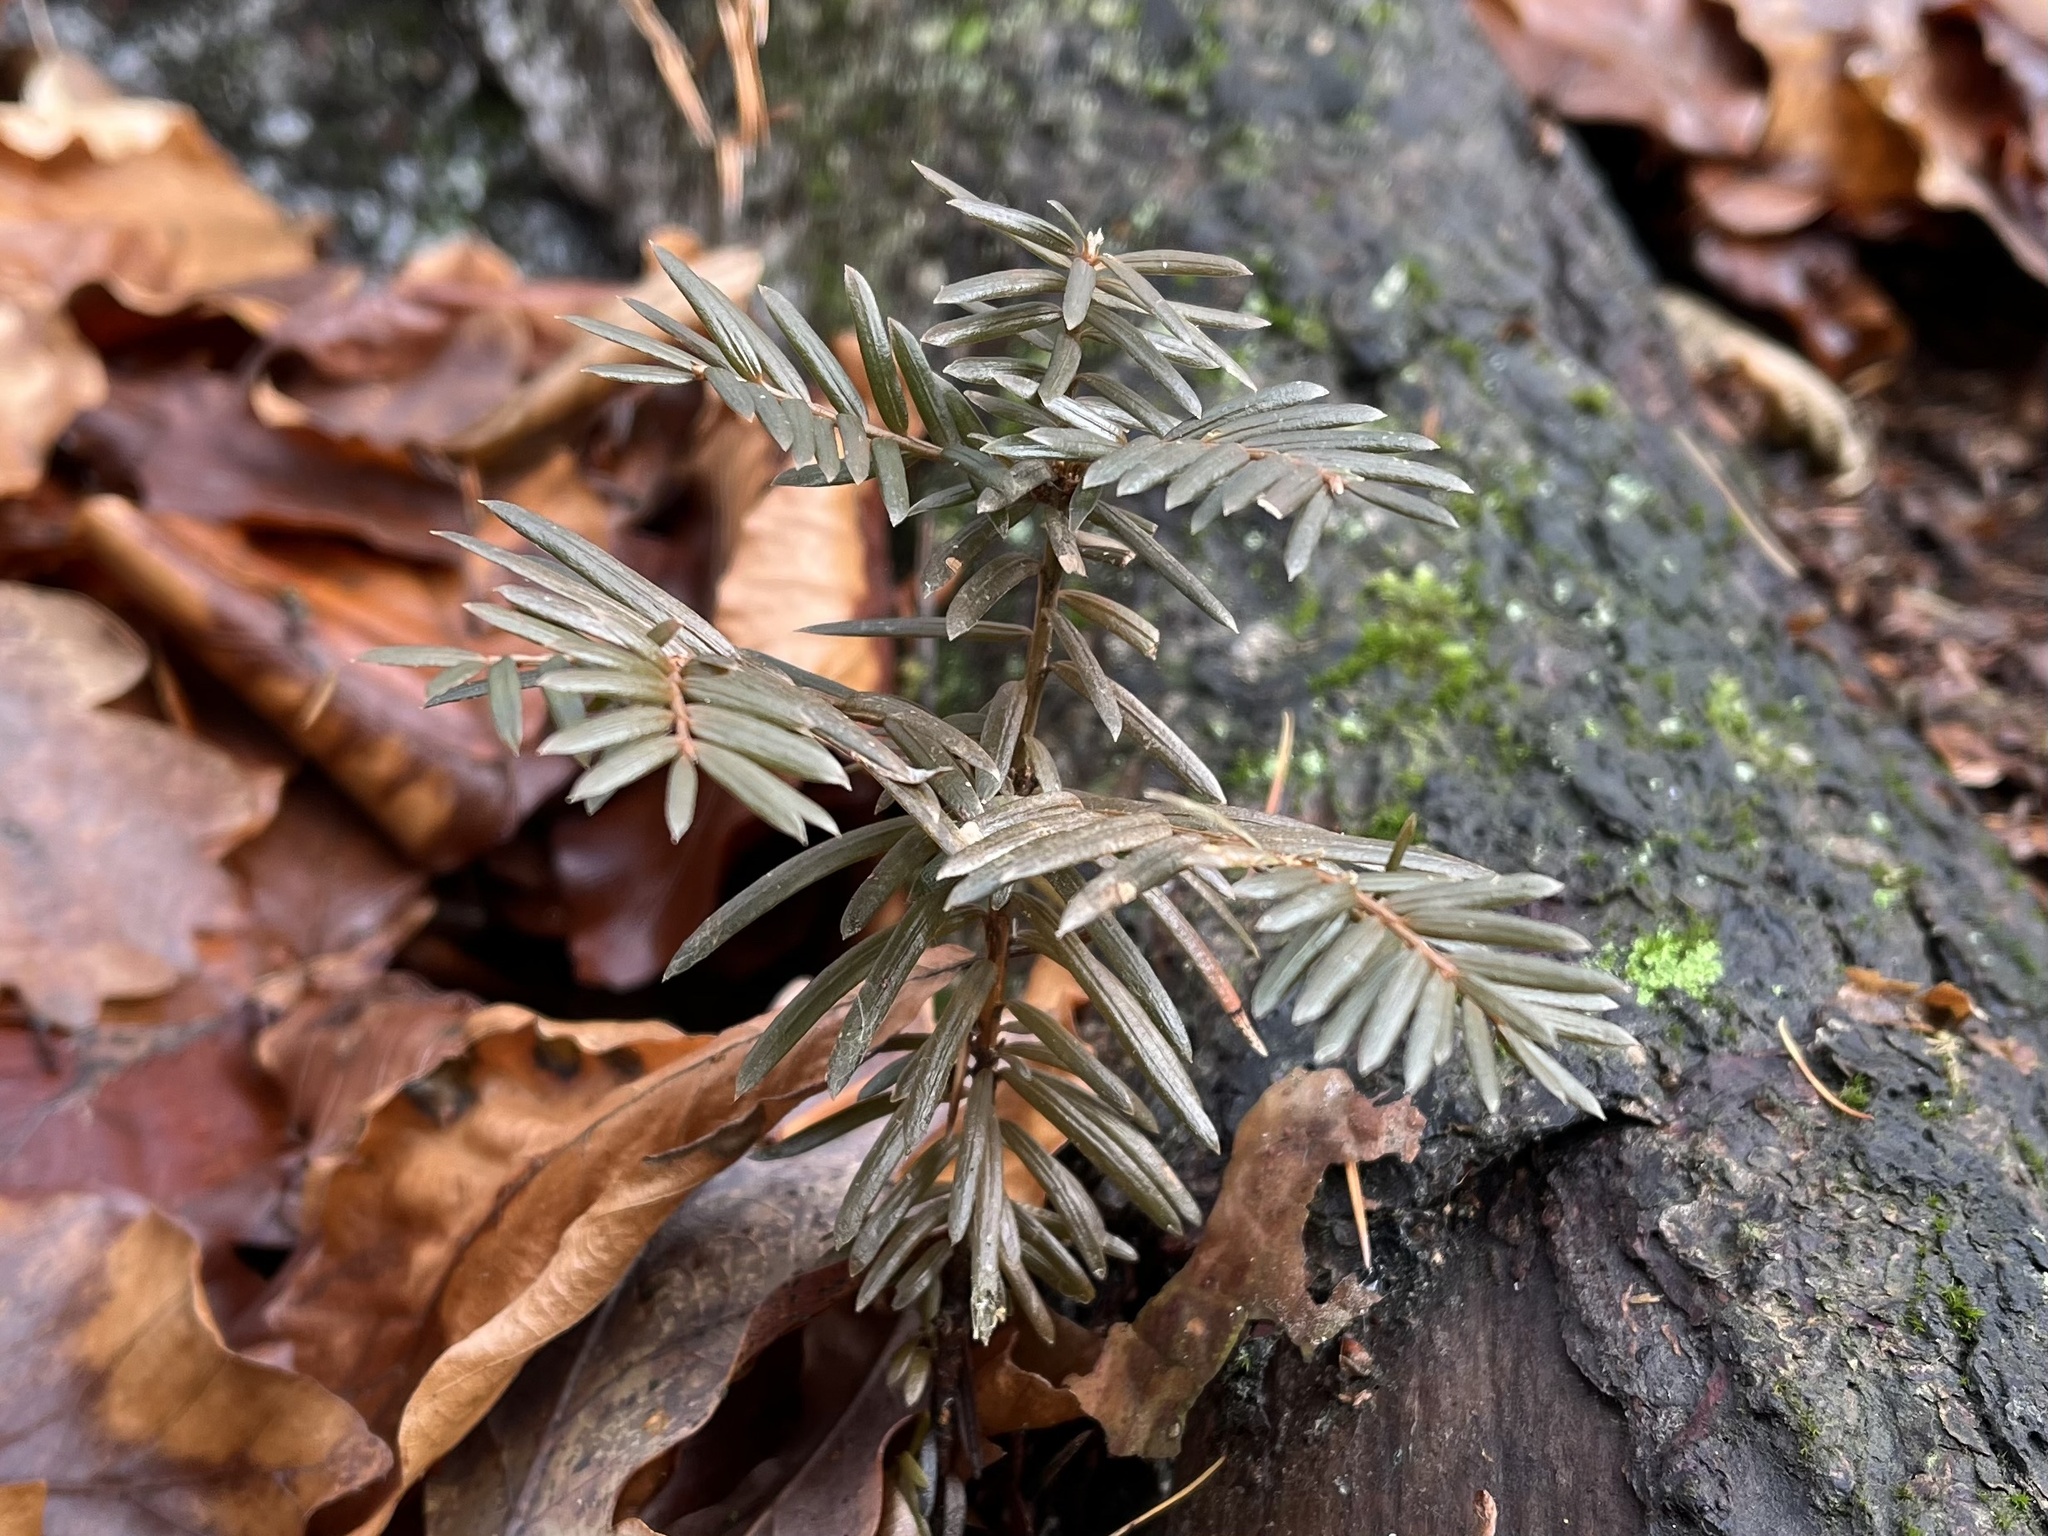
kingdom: Plantae
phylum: Tracheophyta
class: Pinopsida
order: Pinales
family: Taxaceae
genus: Taxus
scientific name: Taxus baccata
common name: Yew
